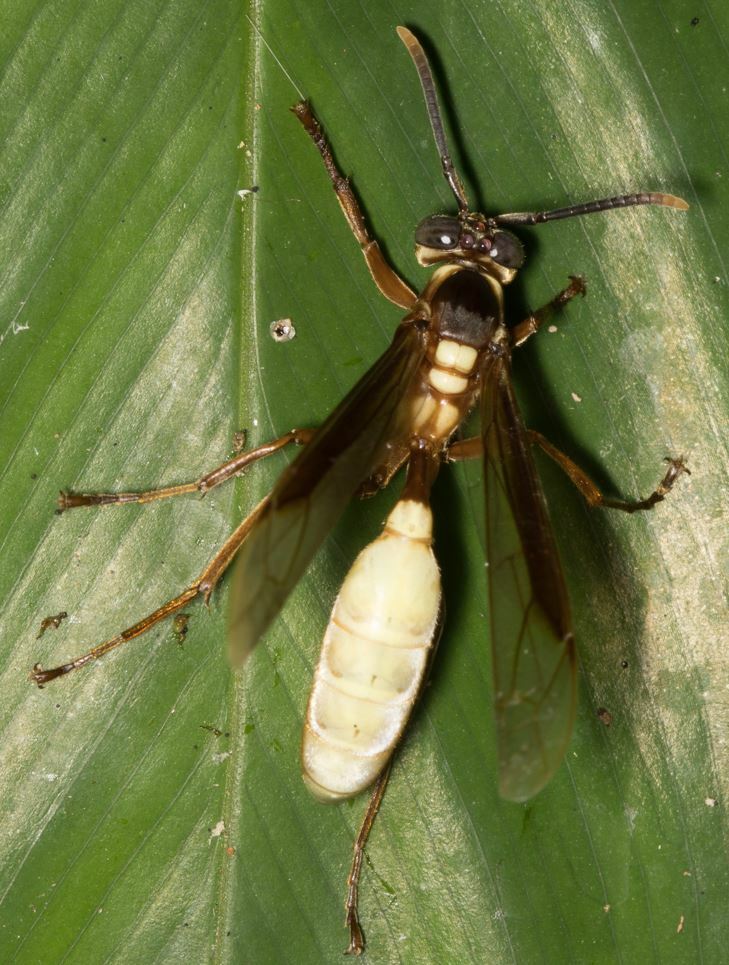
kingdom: Animalia
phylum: Arthropoda
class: Insecta
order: Hymenoptera
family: Vespidae
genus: Apoica
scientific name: Apoica pallens
